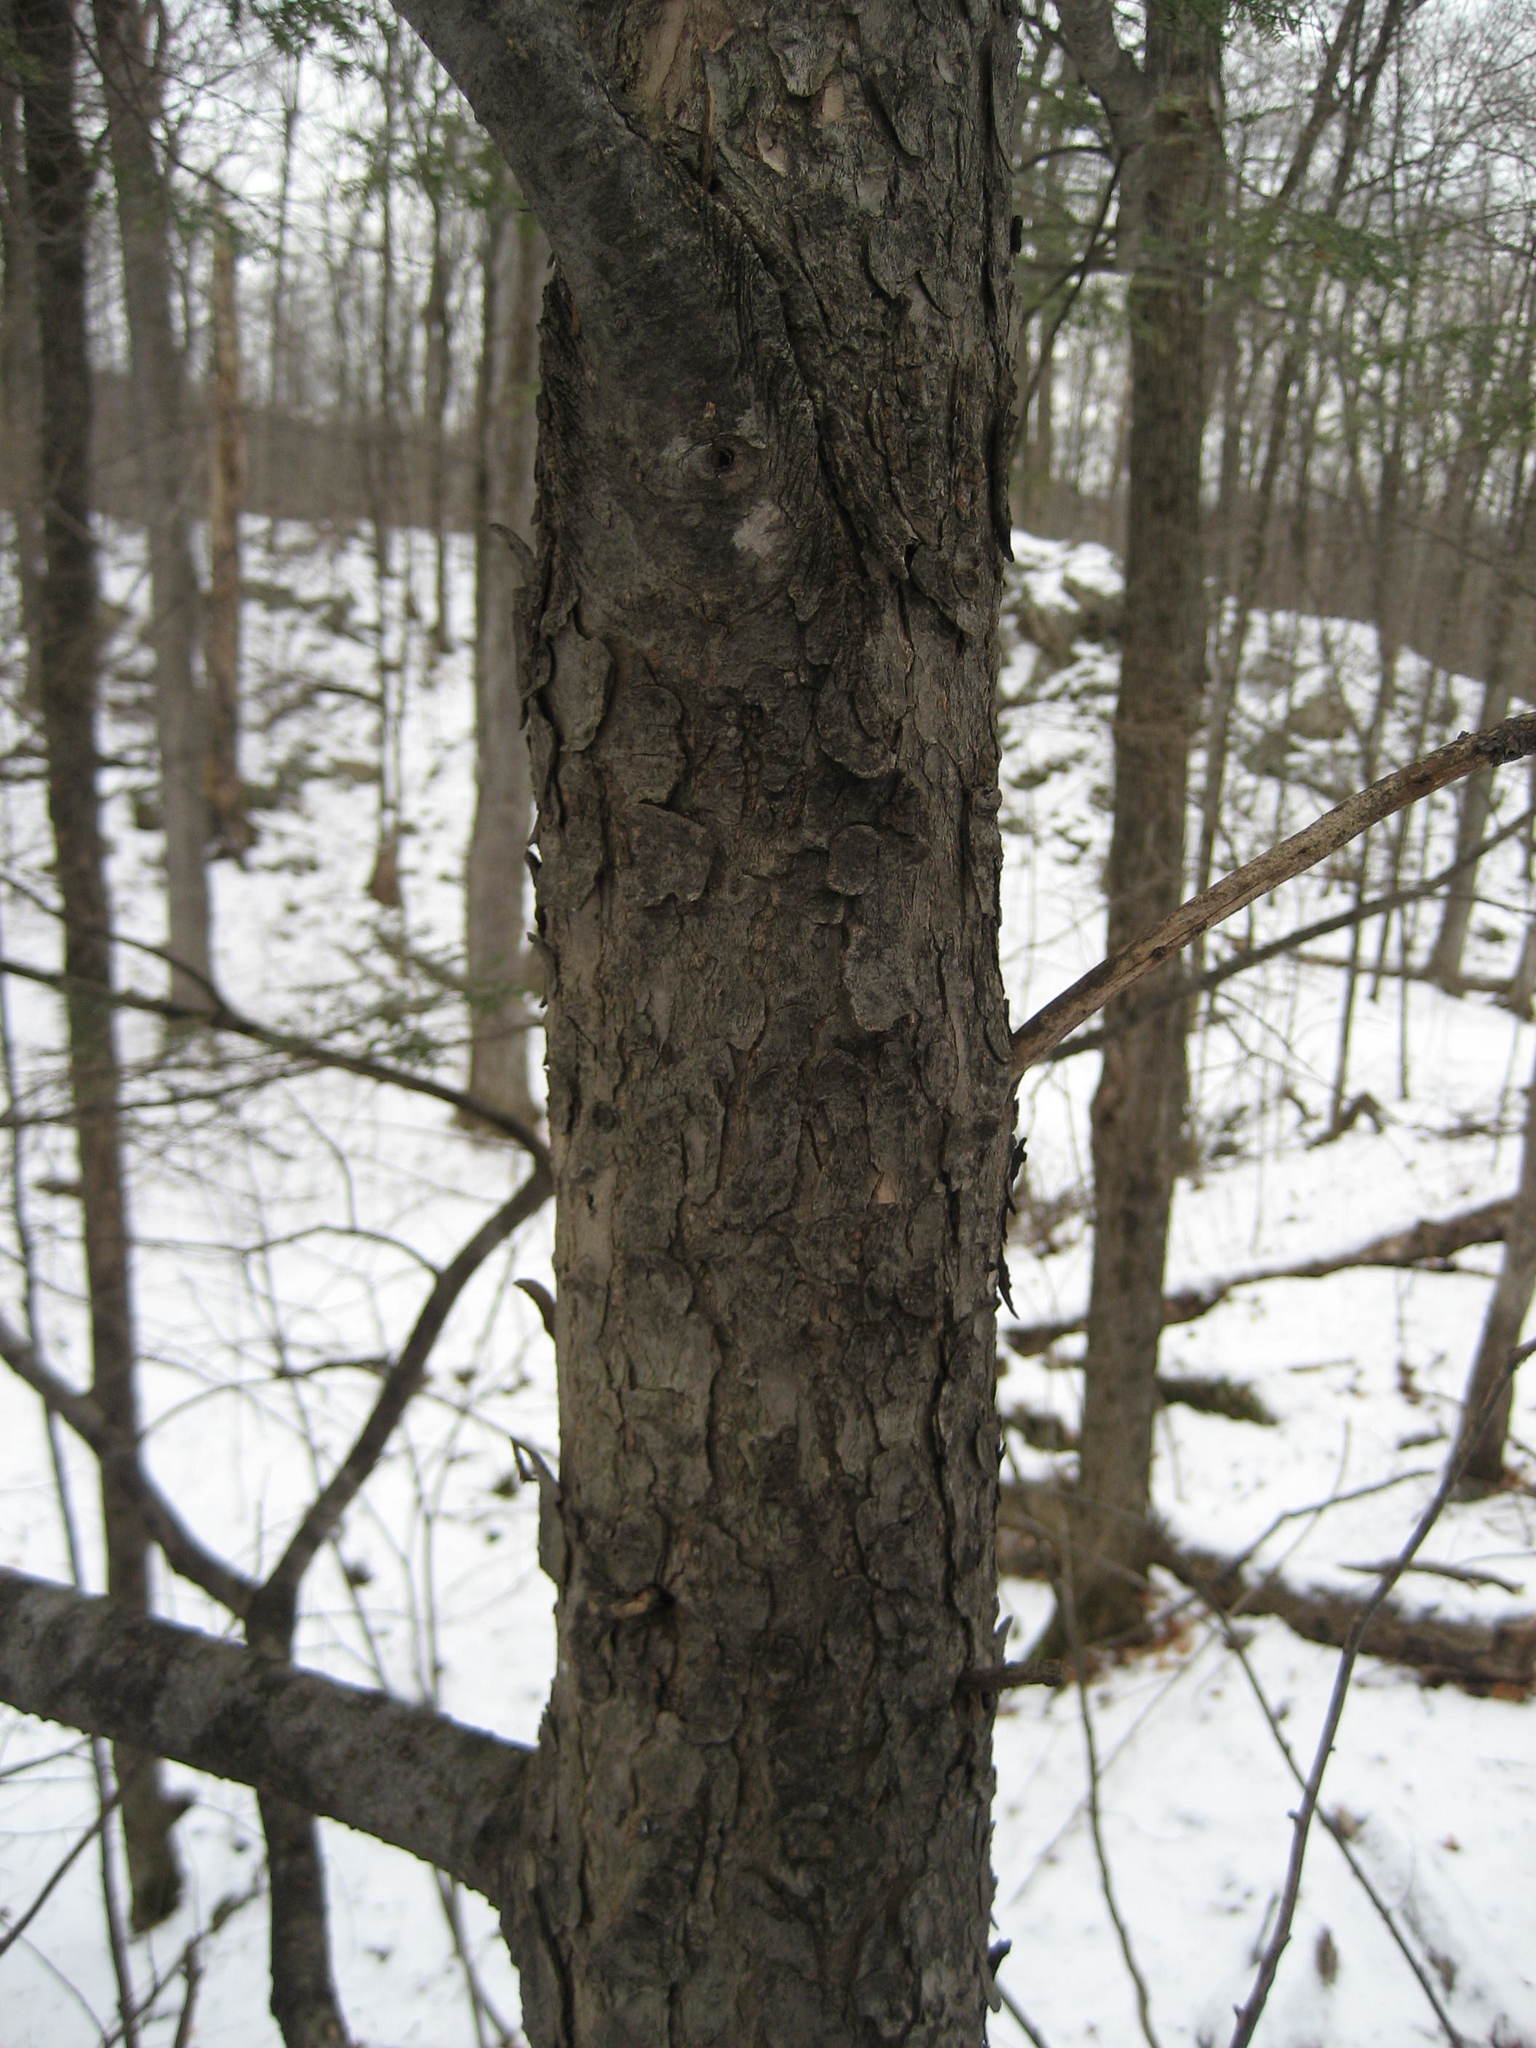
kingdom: Plantae
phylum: Tracheophyta
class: Pinopsida
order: Pinales
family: Pinaceae
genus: Tsuga
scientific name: Tsuga canadensis
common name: Eastern hemlock
